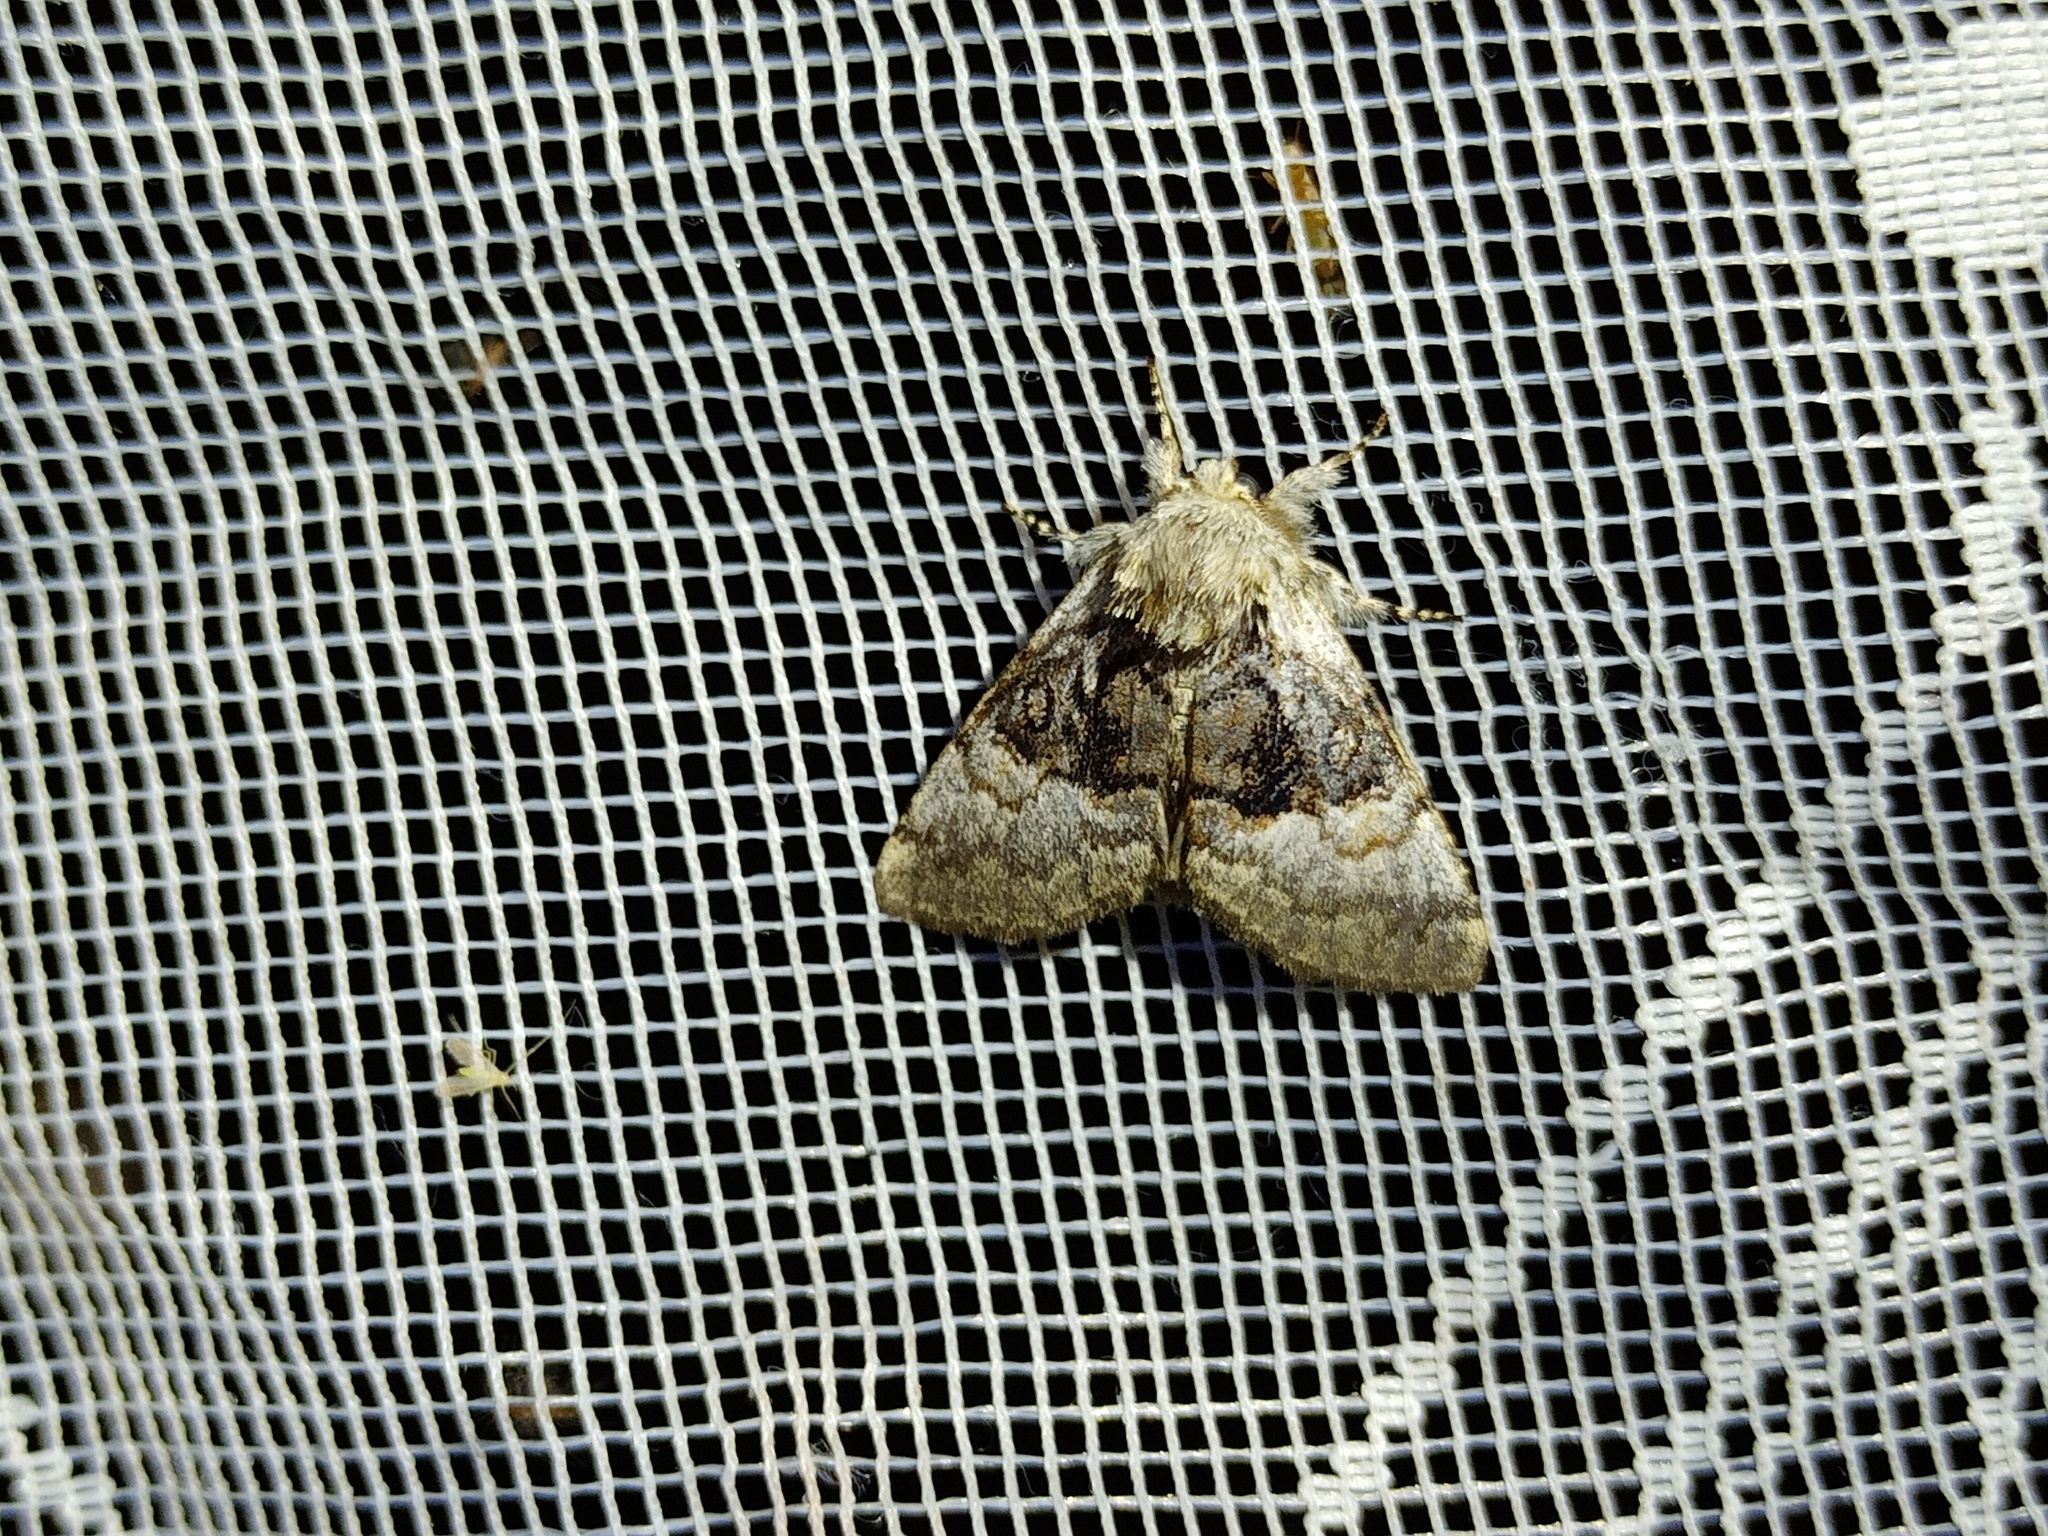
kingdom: Animalia
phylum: Arthropoda
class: Insecta
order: Lepidoptera
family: Noctuidae
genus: Colocasia
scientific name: Colocasia coryli
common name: Nut-tree tussock
